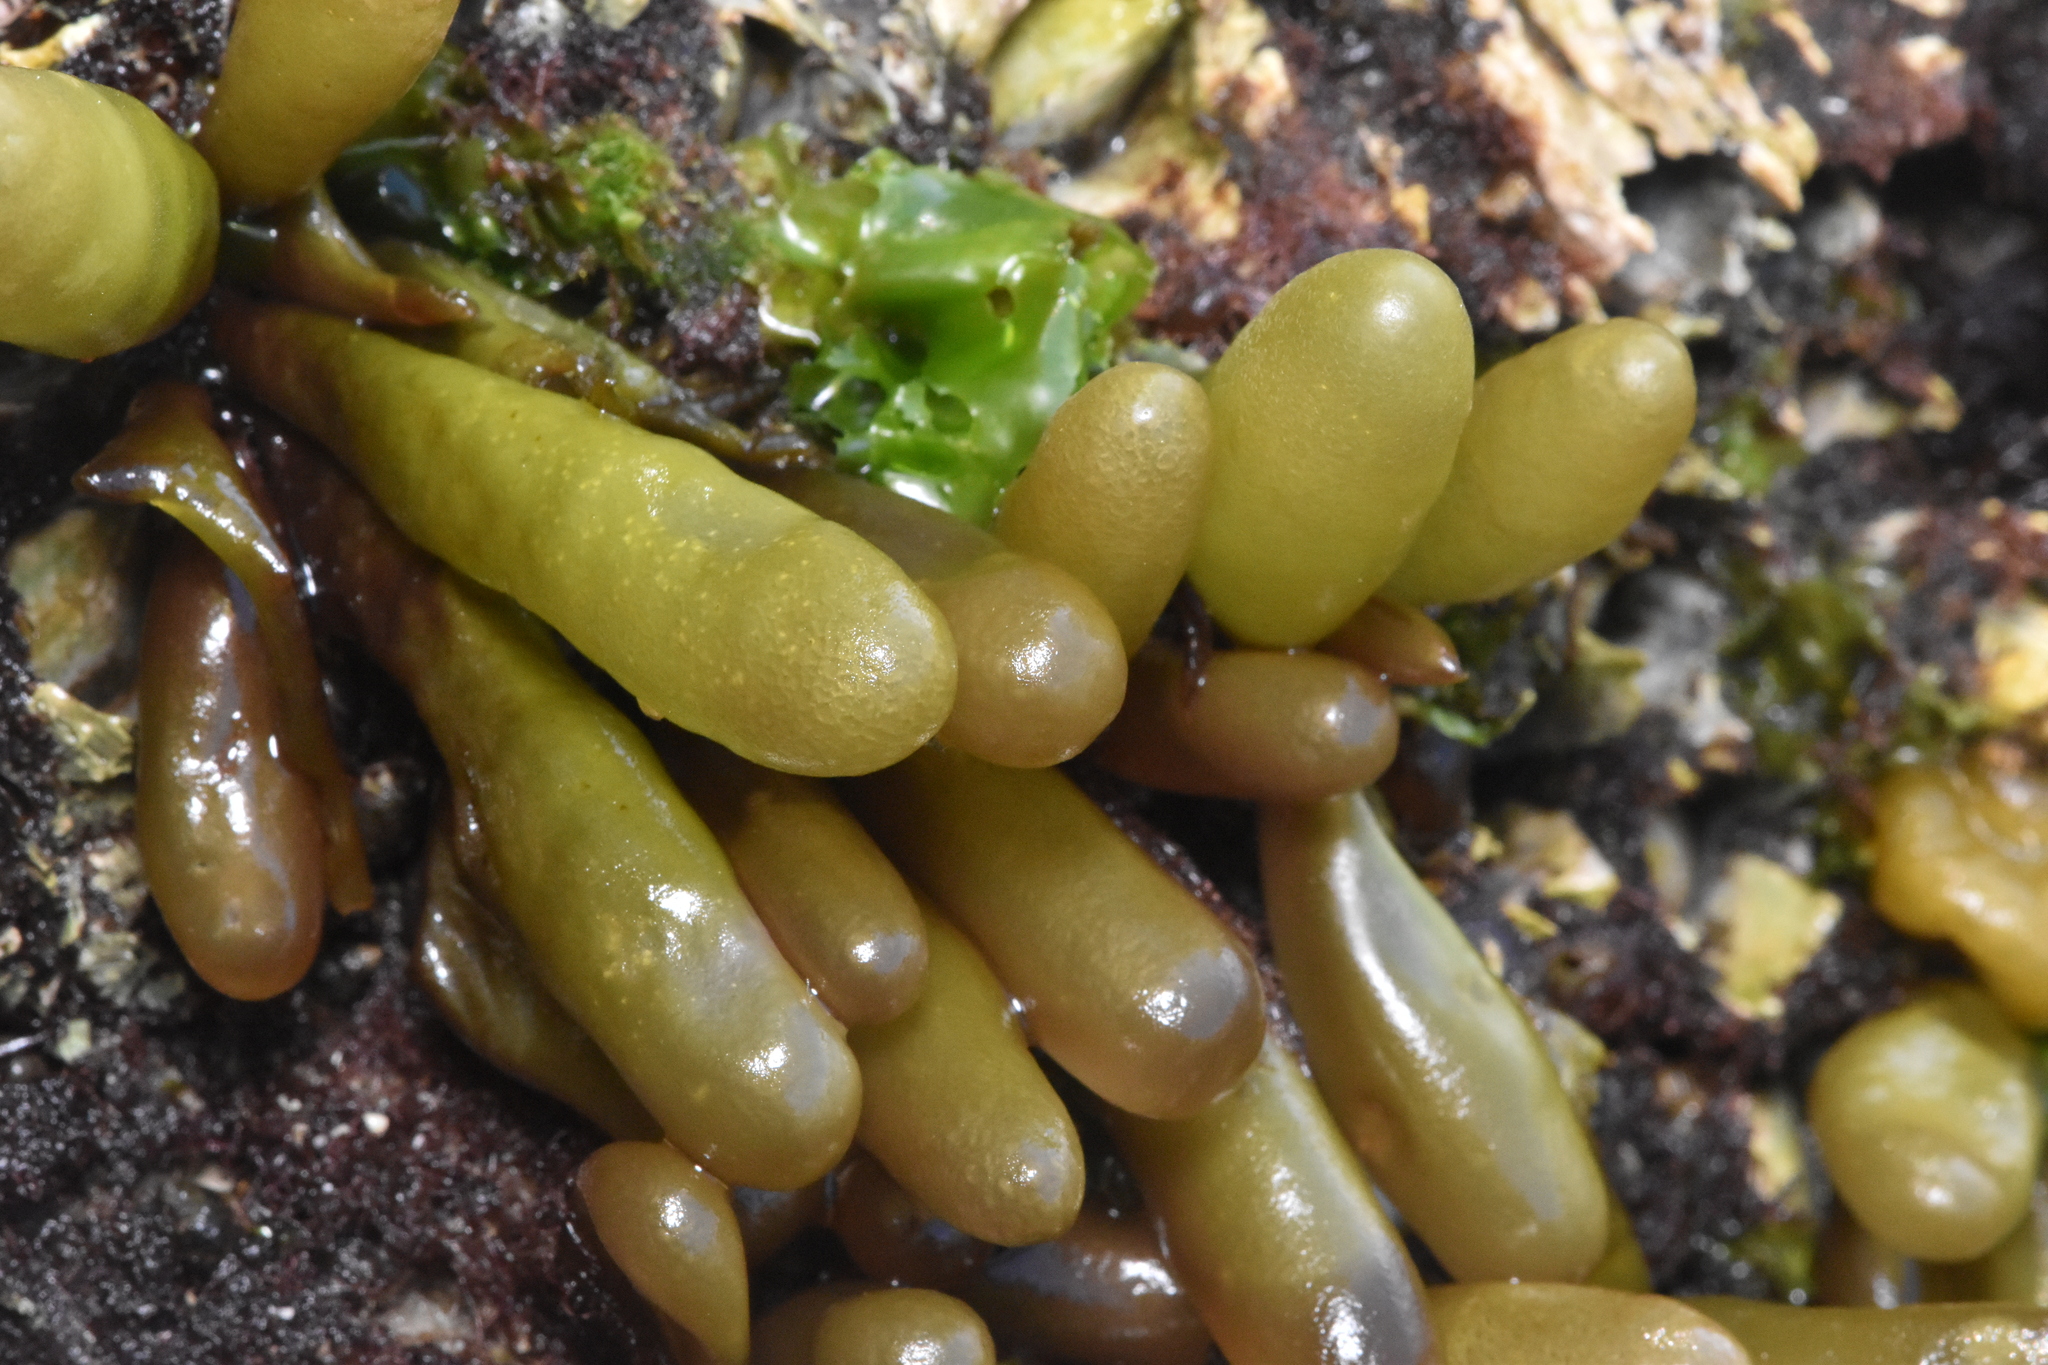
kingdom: Plantae
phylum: Rhodophyta
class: Florideophyceae
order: Palmariales
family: Palmariaceae
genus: Halosaccion
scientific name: Halosaccion glandiforme
